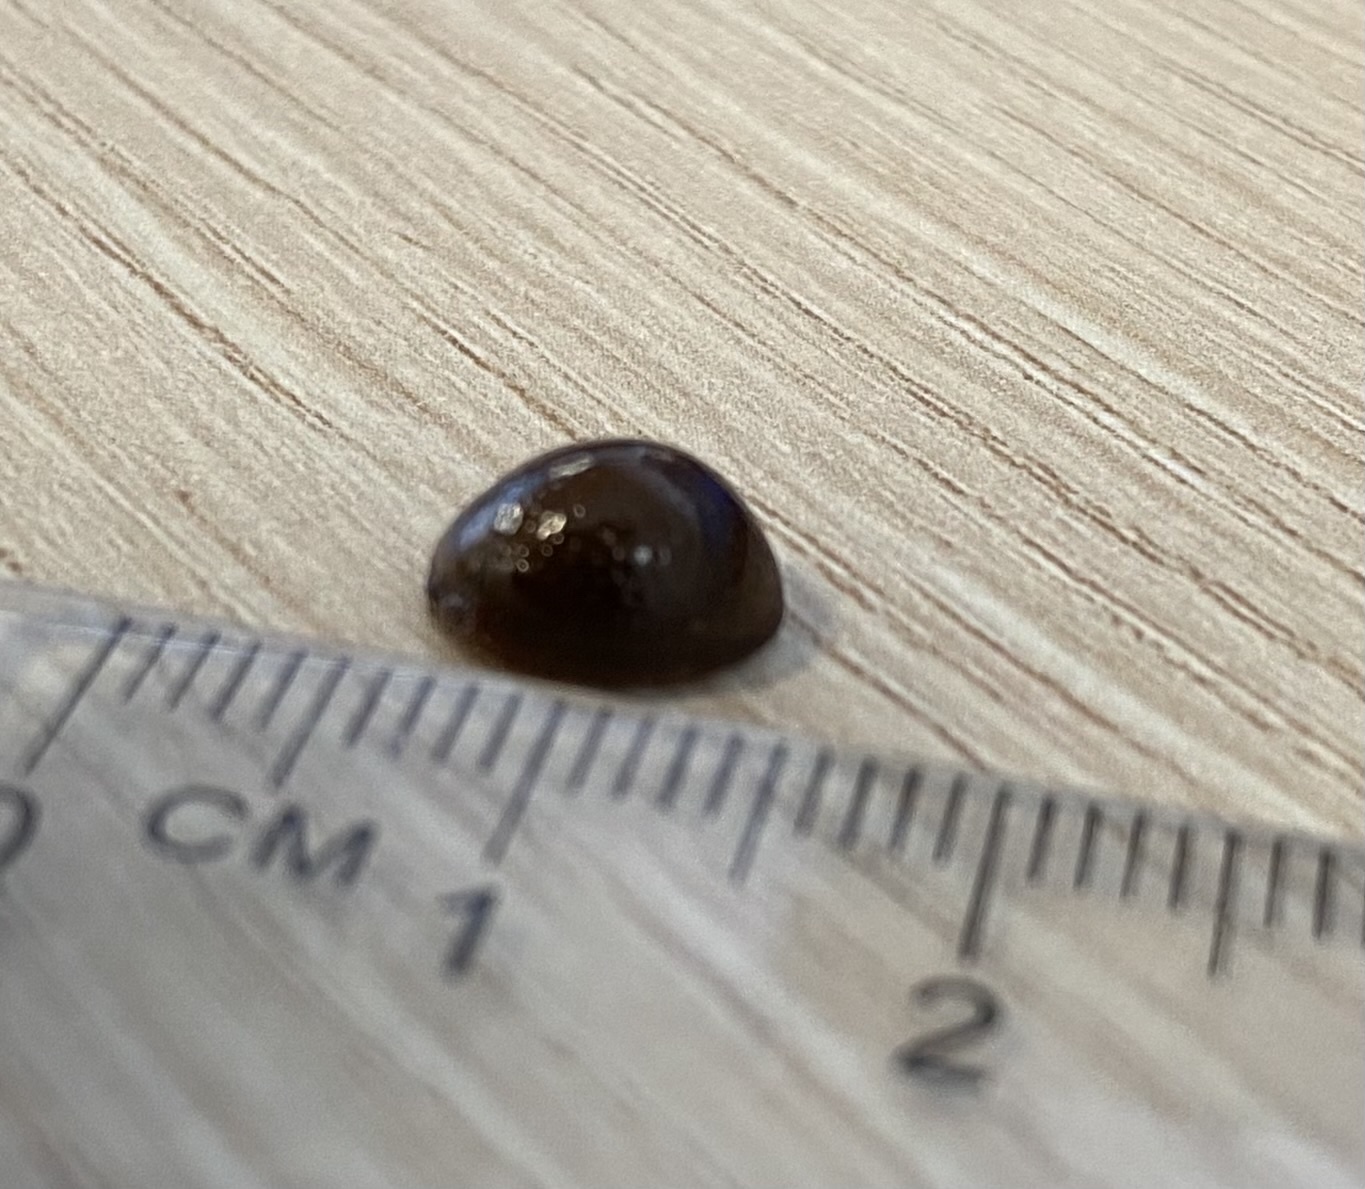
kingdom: Animalia
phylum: Arthropoda
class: Insecta
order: Coleoptera
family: Chrysomelidae
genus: Dicranosterna
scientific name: Dicranosterna
